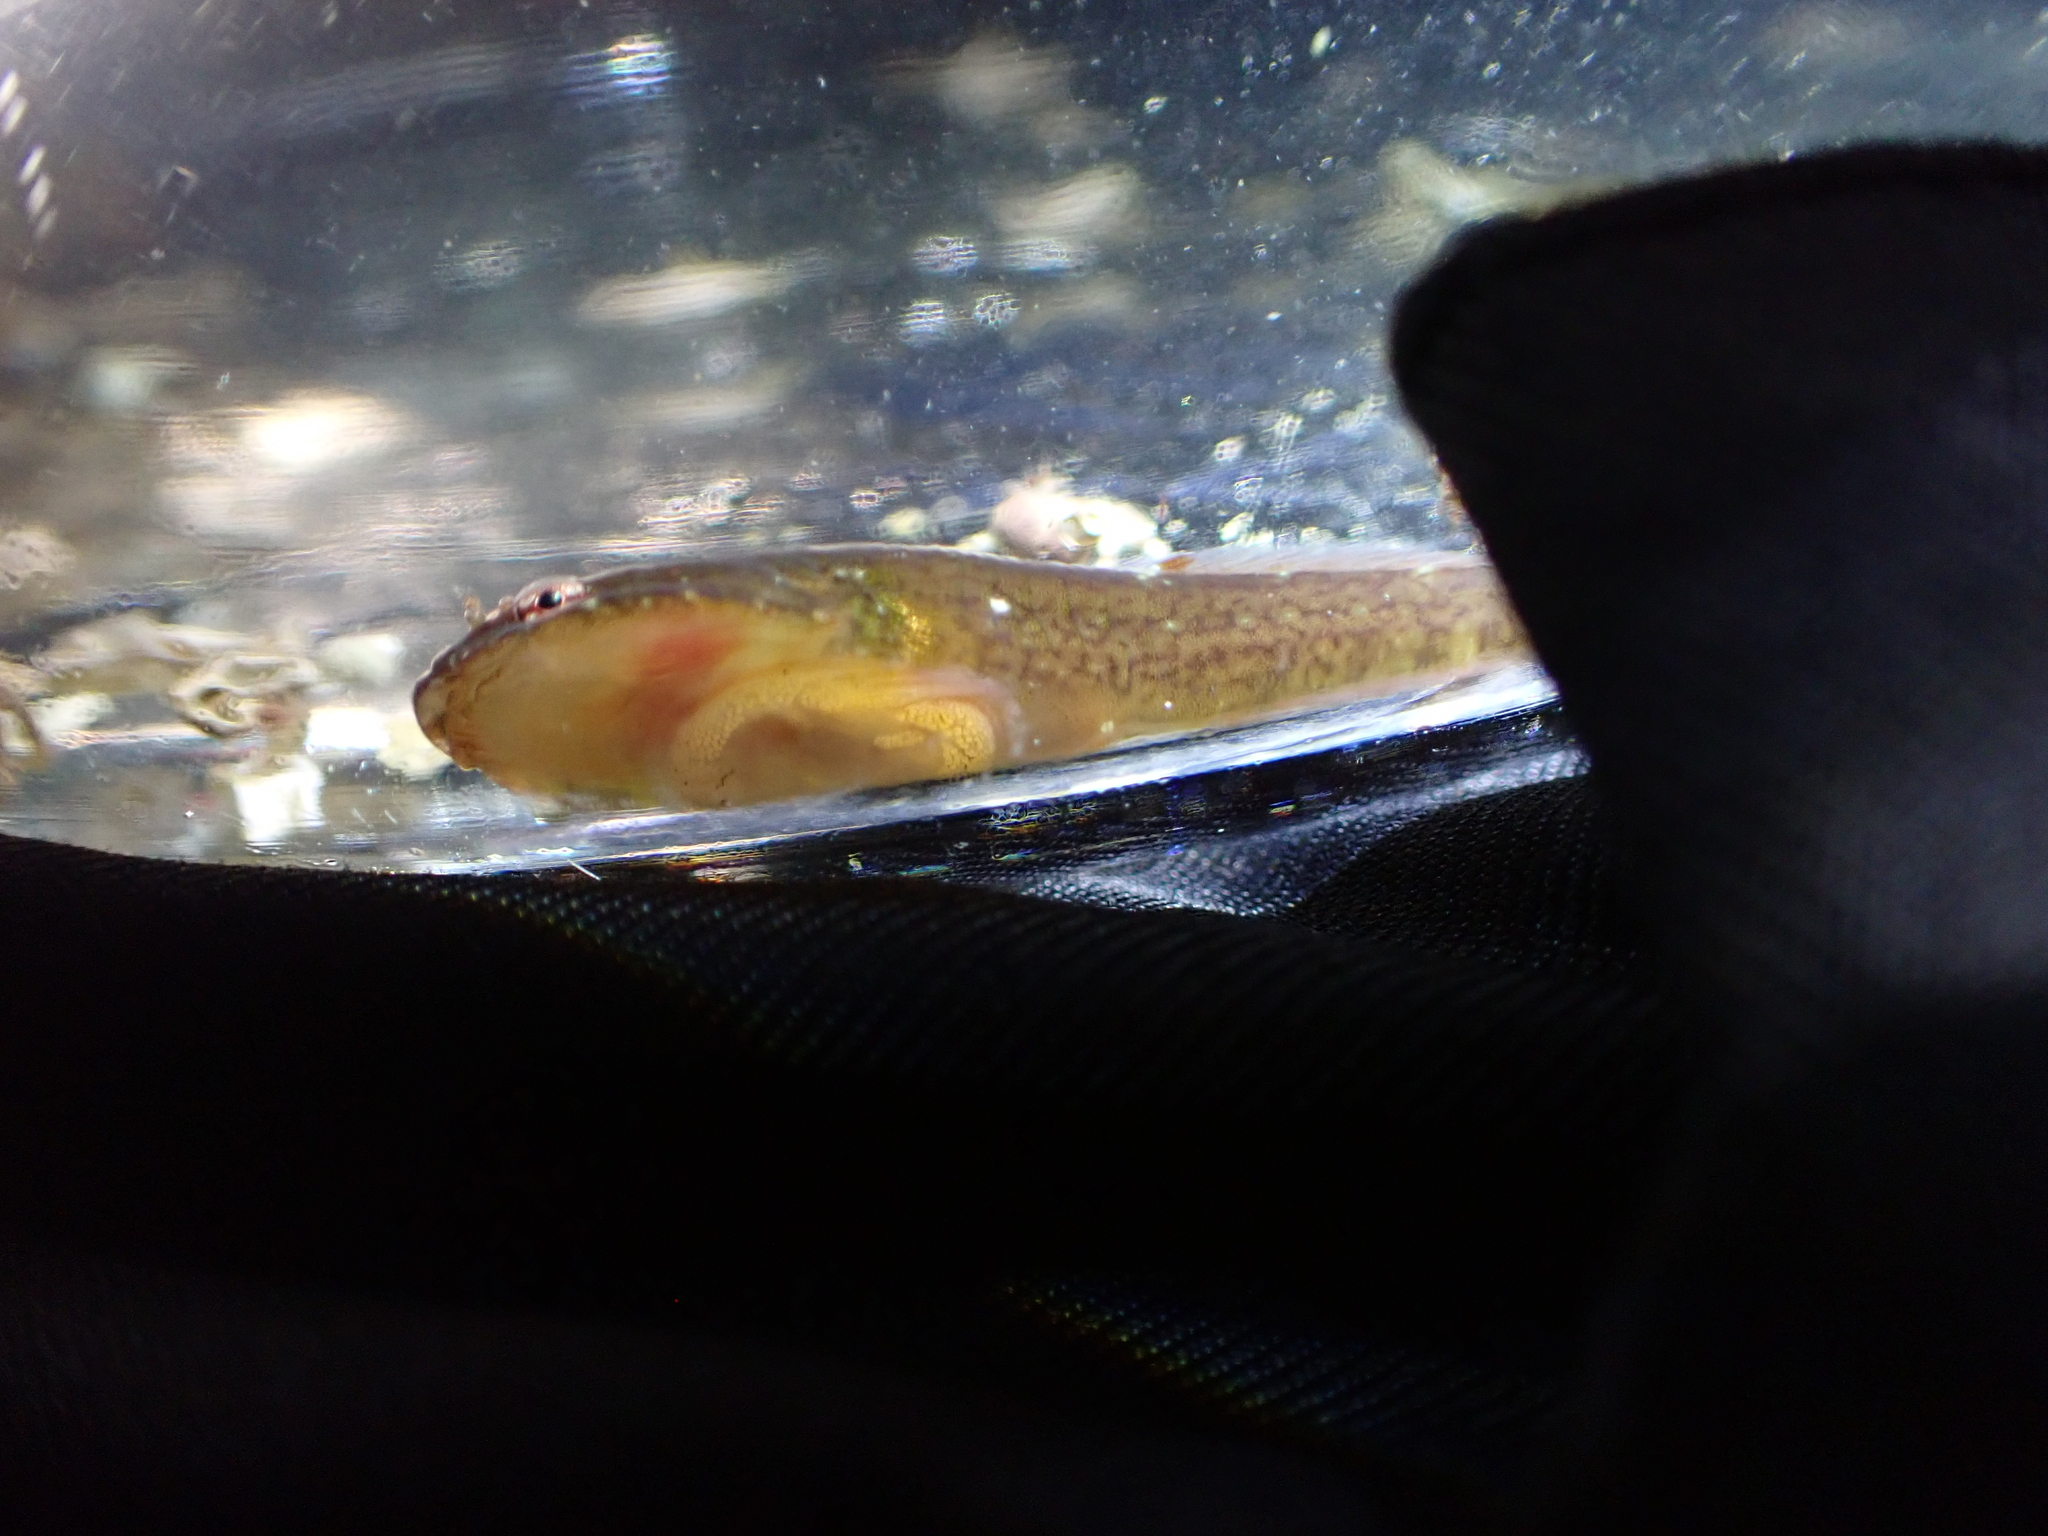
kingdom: Animalia
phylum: Chordata
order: Gobiesociformes
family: Gobiesocidae
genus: Gobiesox
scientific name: Gobiesox maeandricus
